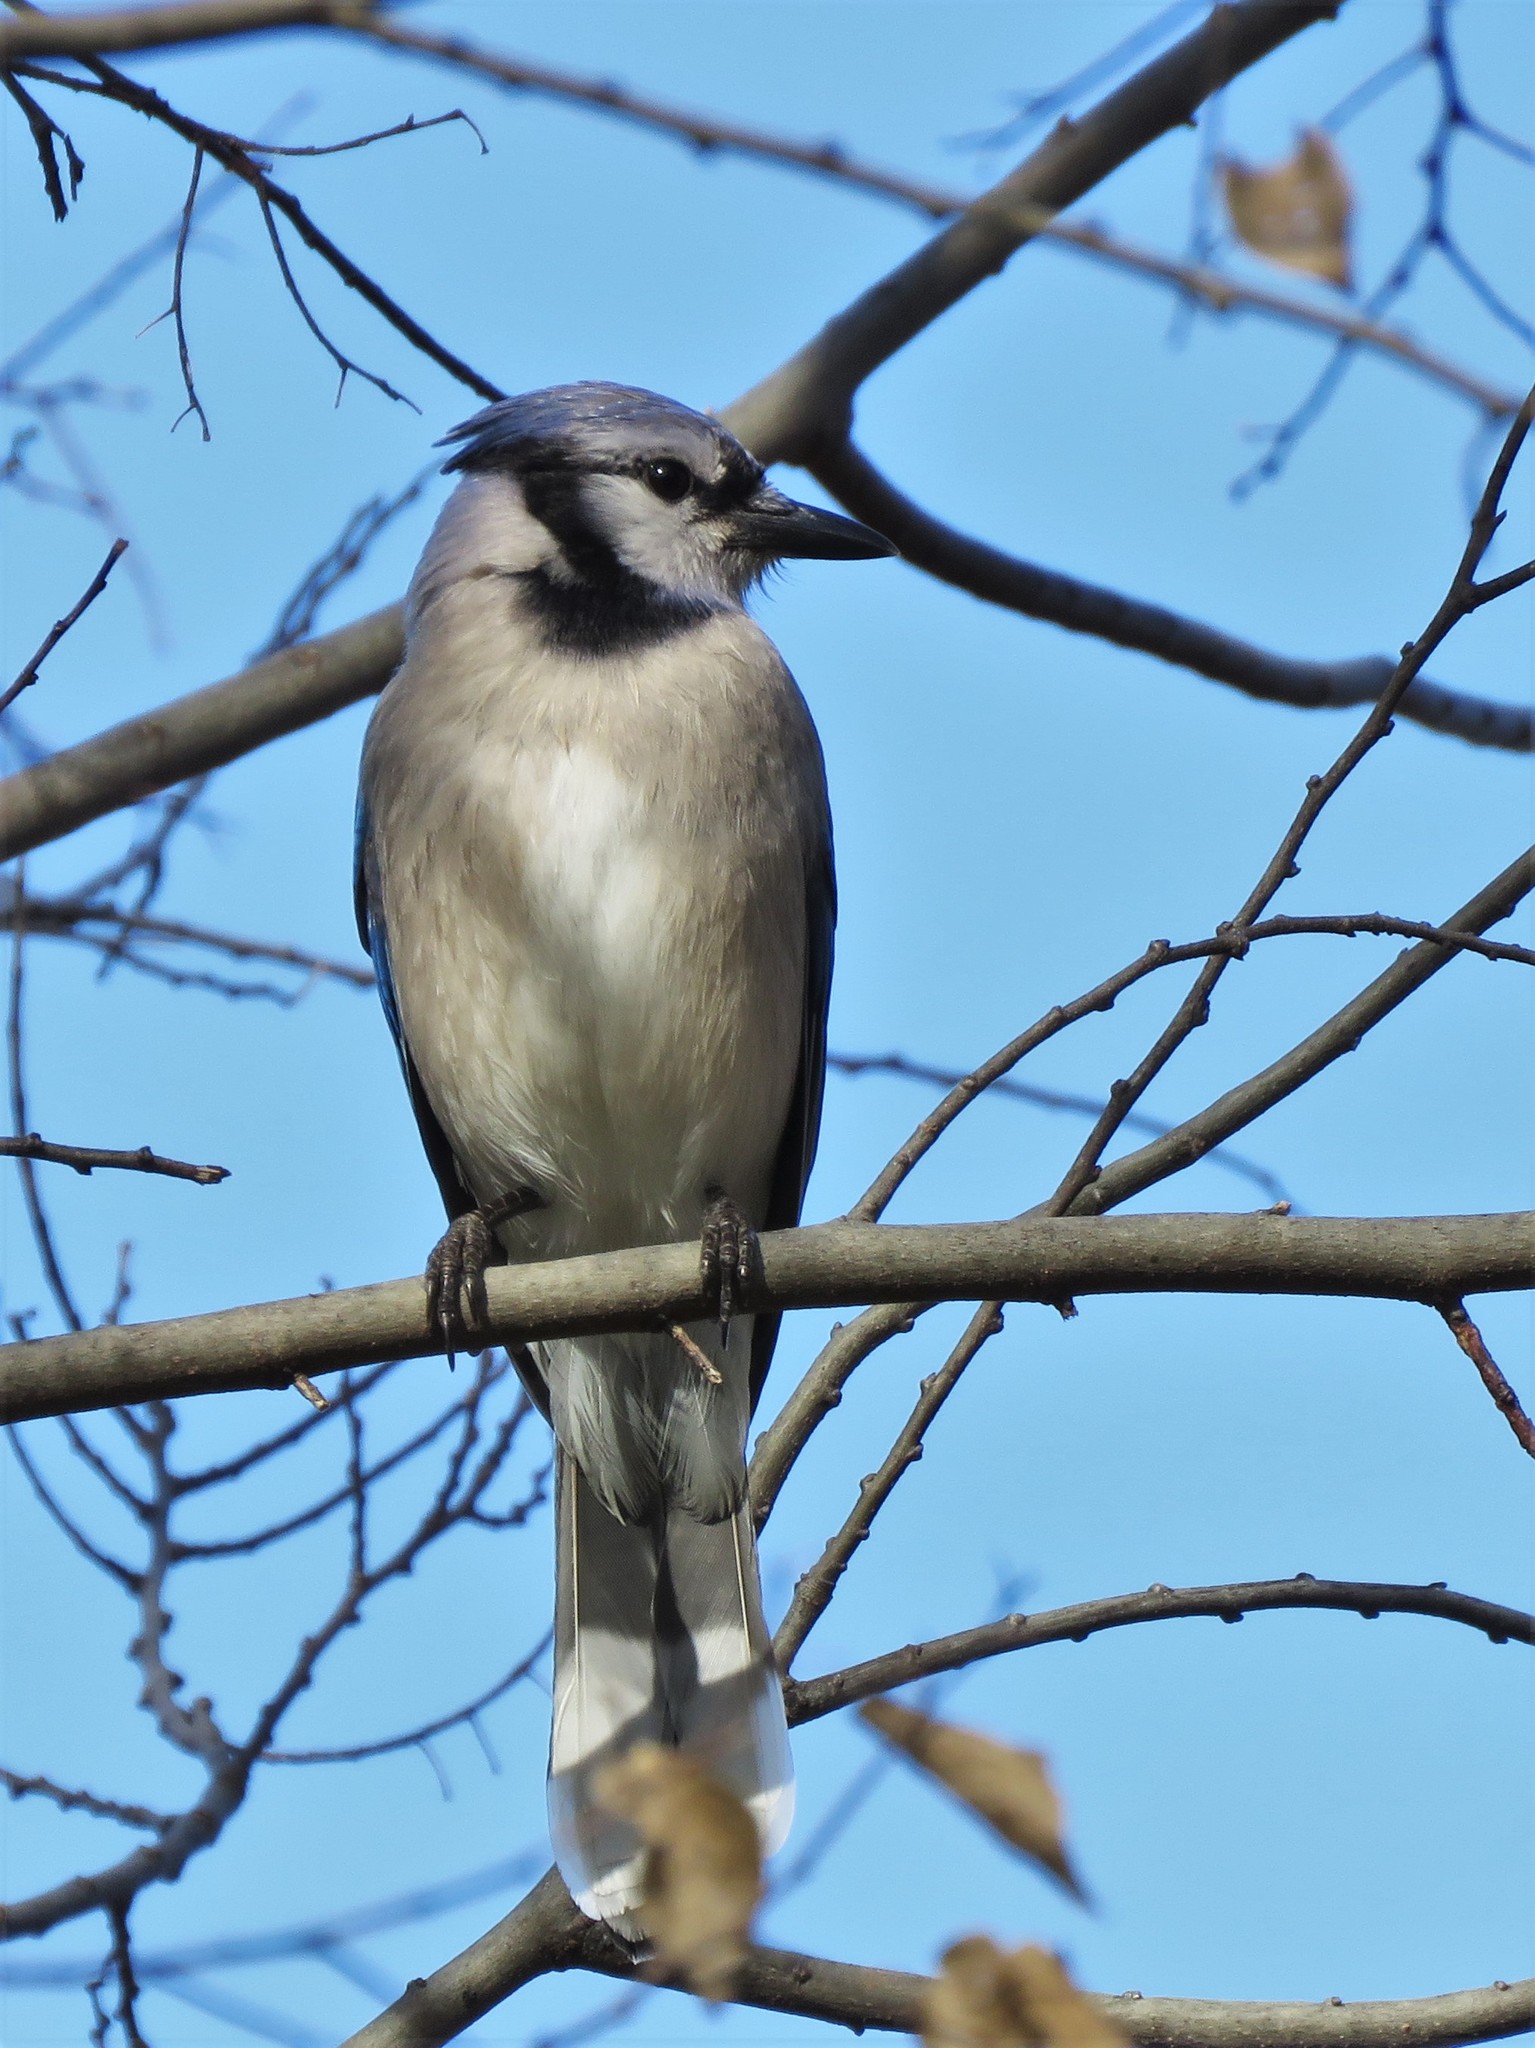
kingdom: Animalia
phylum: Chordata
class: Aves
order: Passeriformes
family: Corvidae
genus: Cyanocitta
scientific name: Cyanocitta cristata
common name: Blue jay
